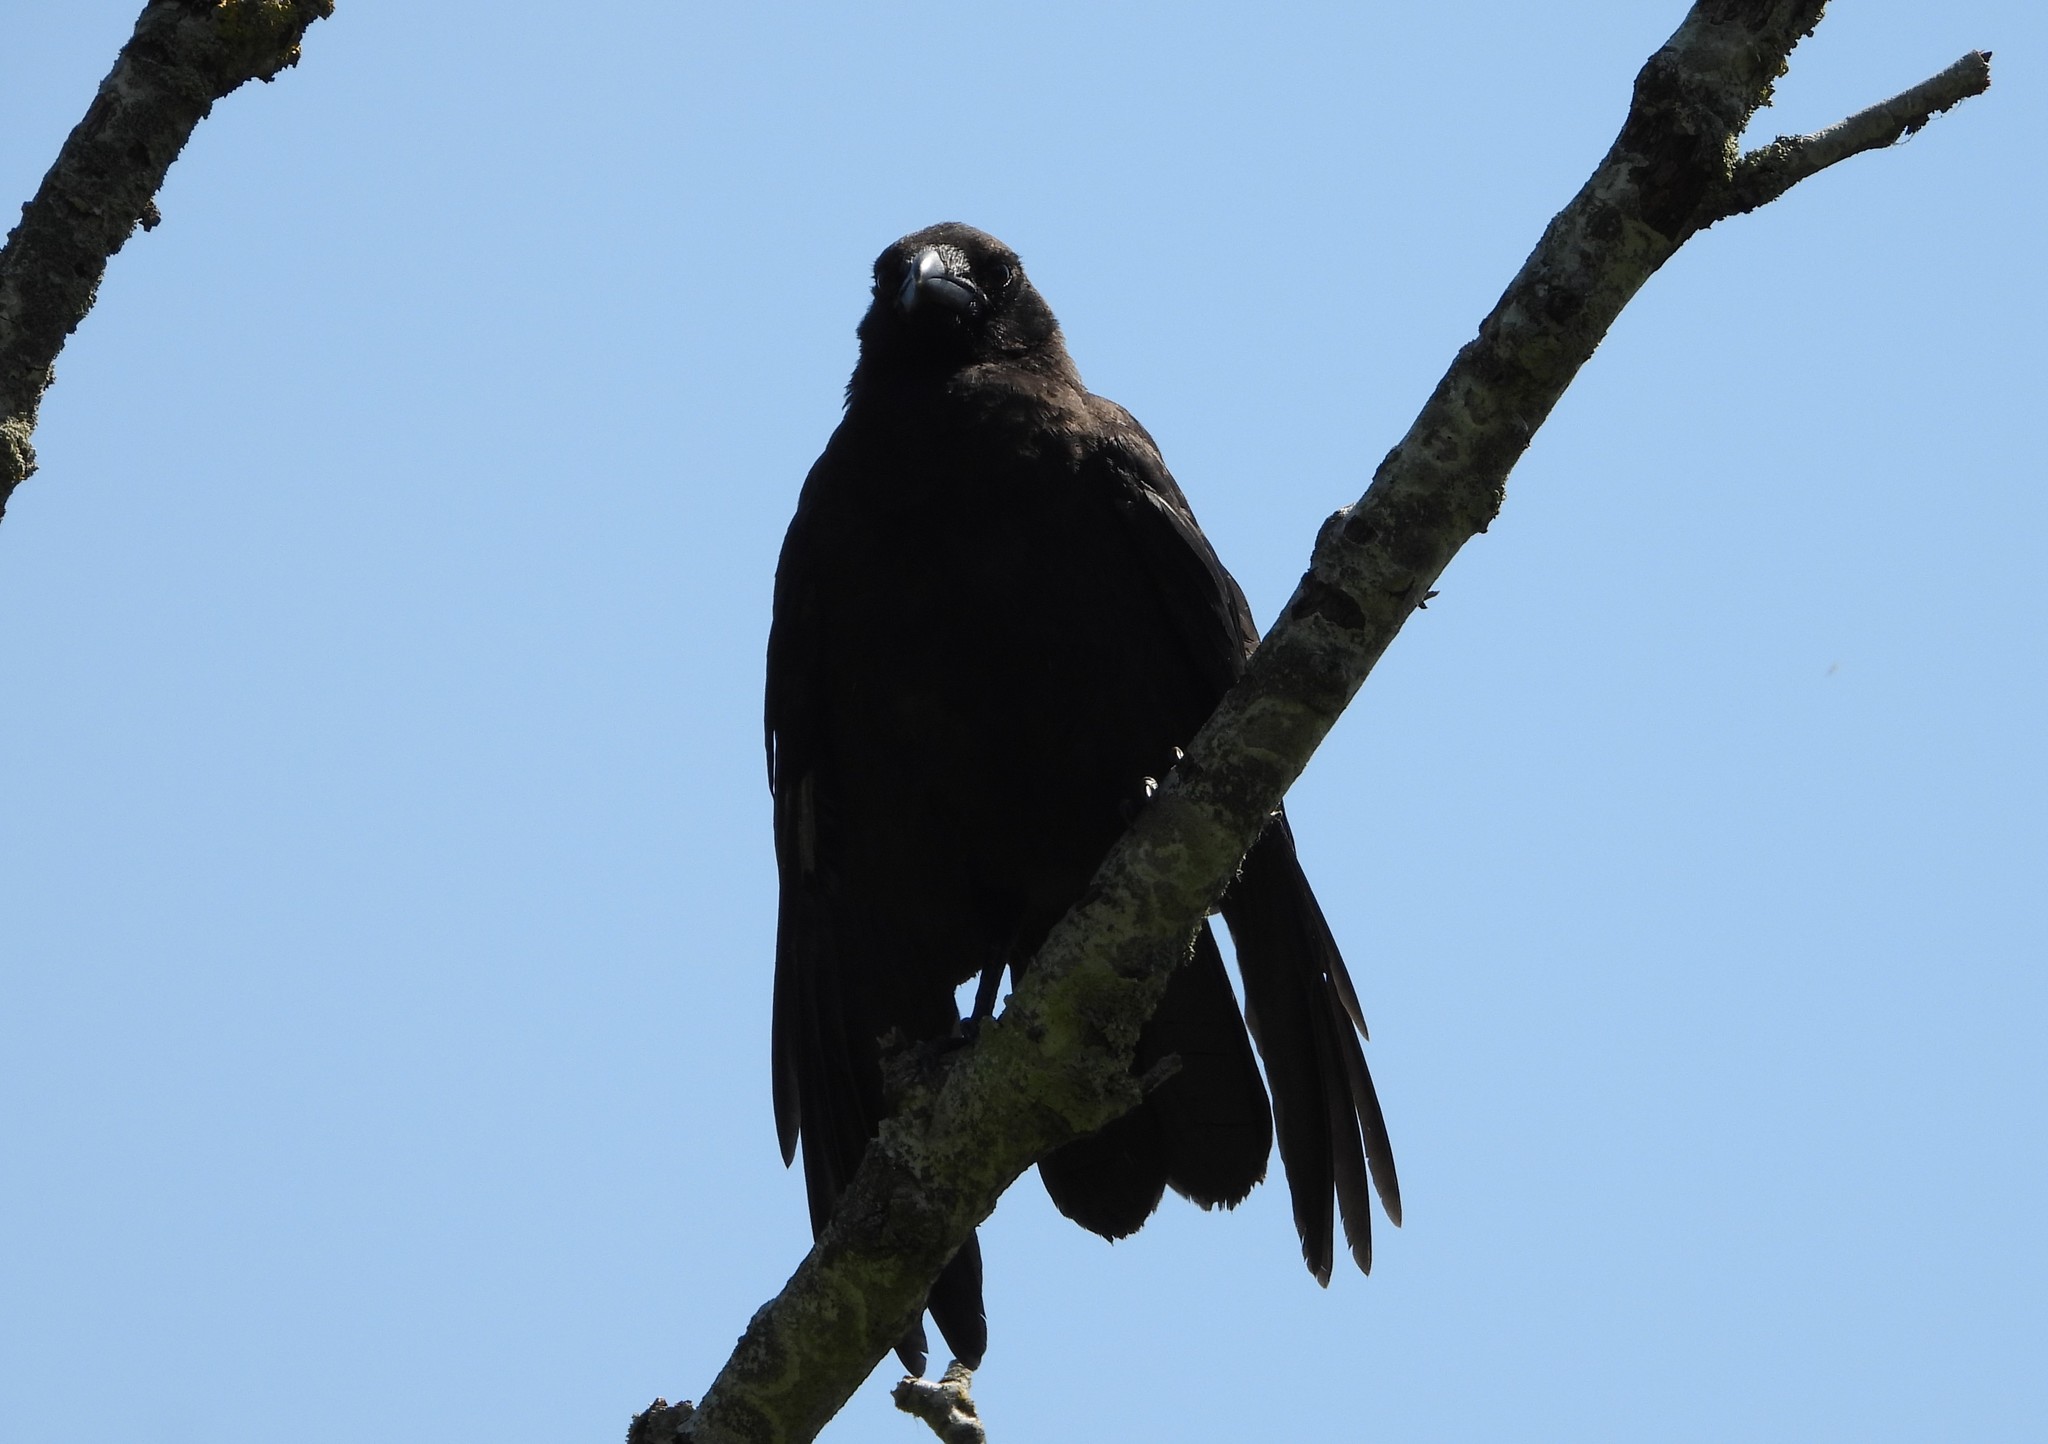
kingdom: Animalia
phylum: Chordata
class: Aves
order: Passeriformes
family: Corvidae
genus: Corvus
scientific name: Corvus corone
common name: Carrion crow
